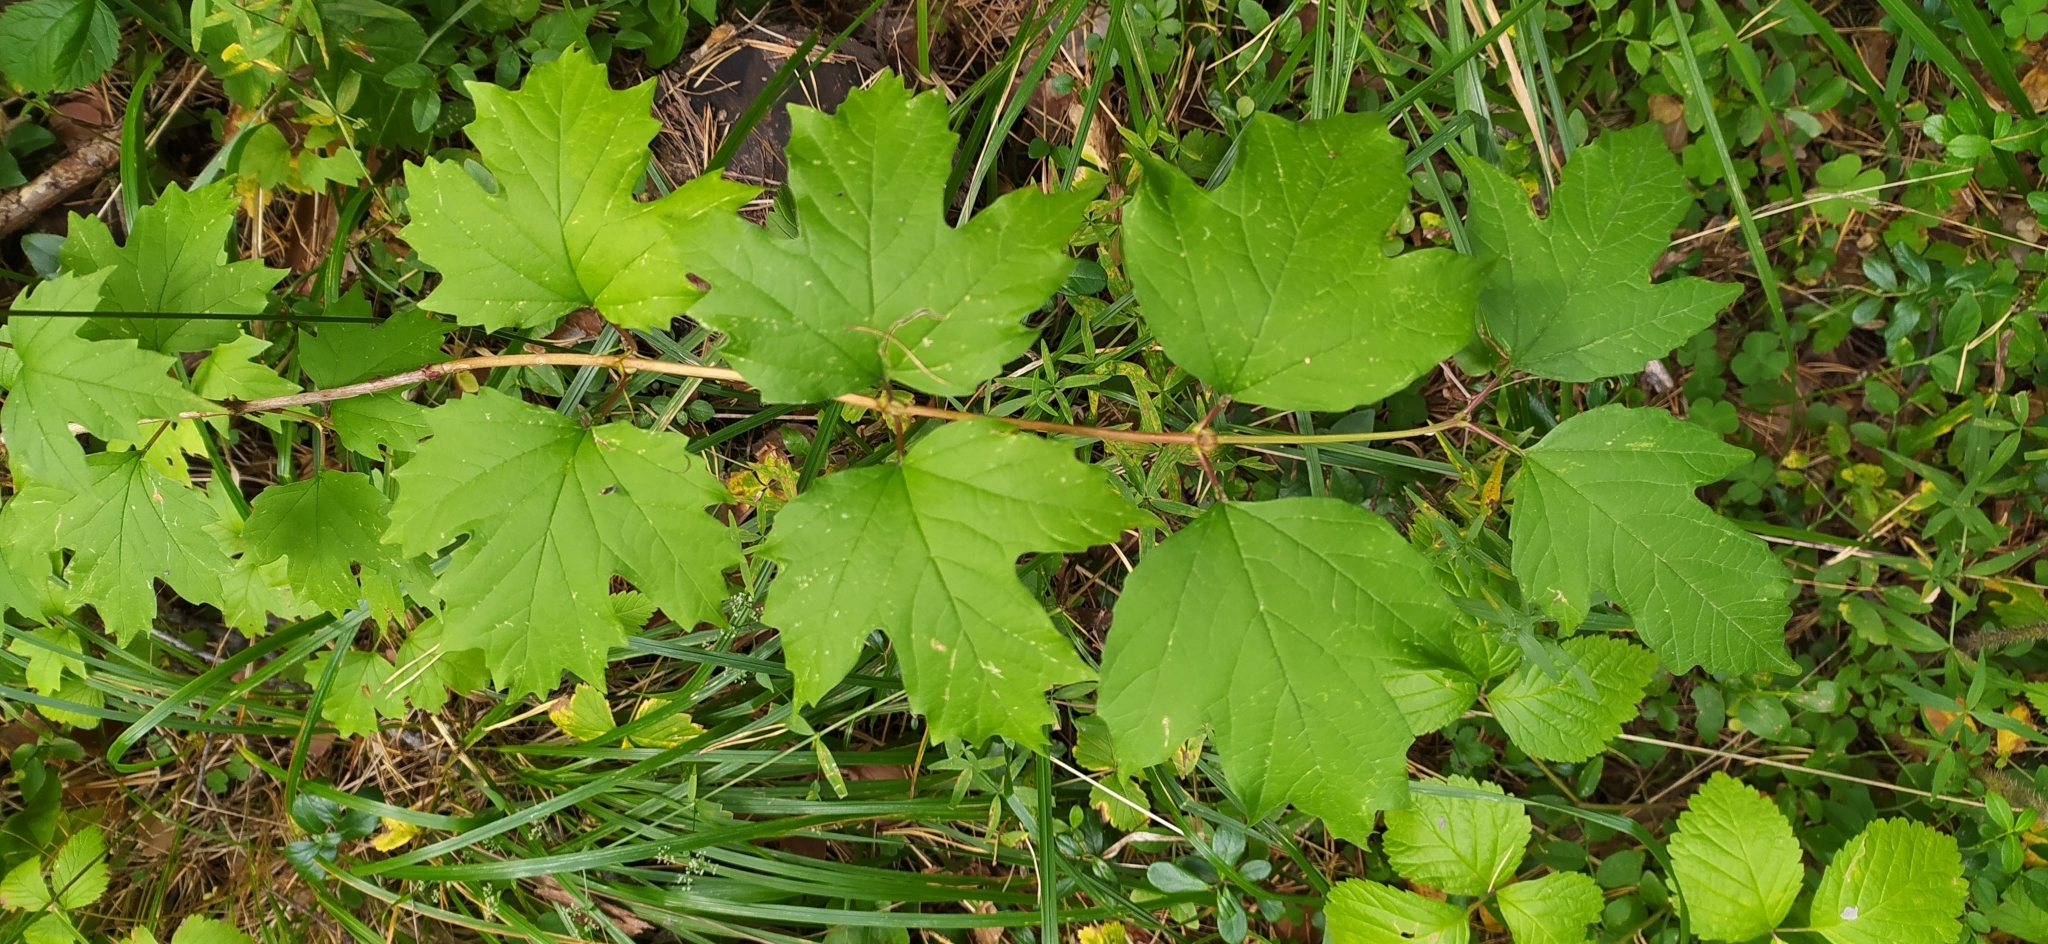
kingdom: Plantae
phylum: Tracheophyta
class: Magnoliopsida
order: Dipsacales
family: Viburnaceae
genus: Viburnum
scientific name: Viburnum opulus
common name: Guelder-rose
